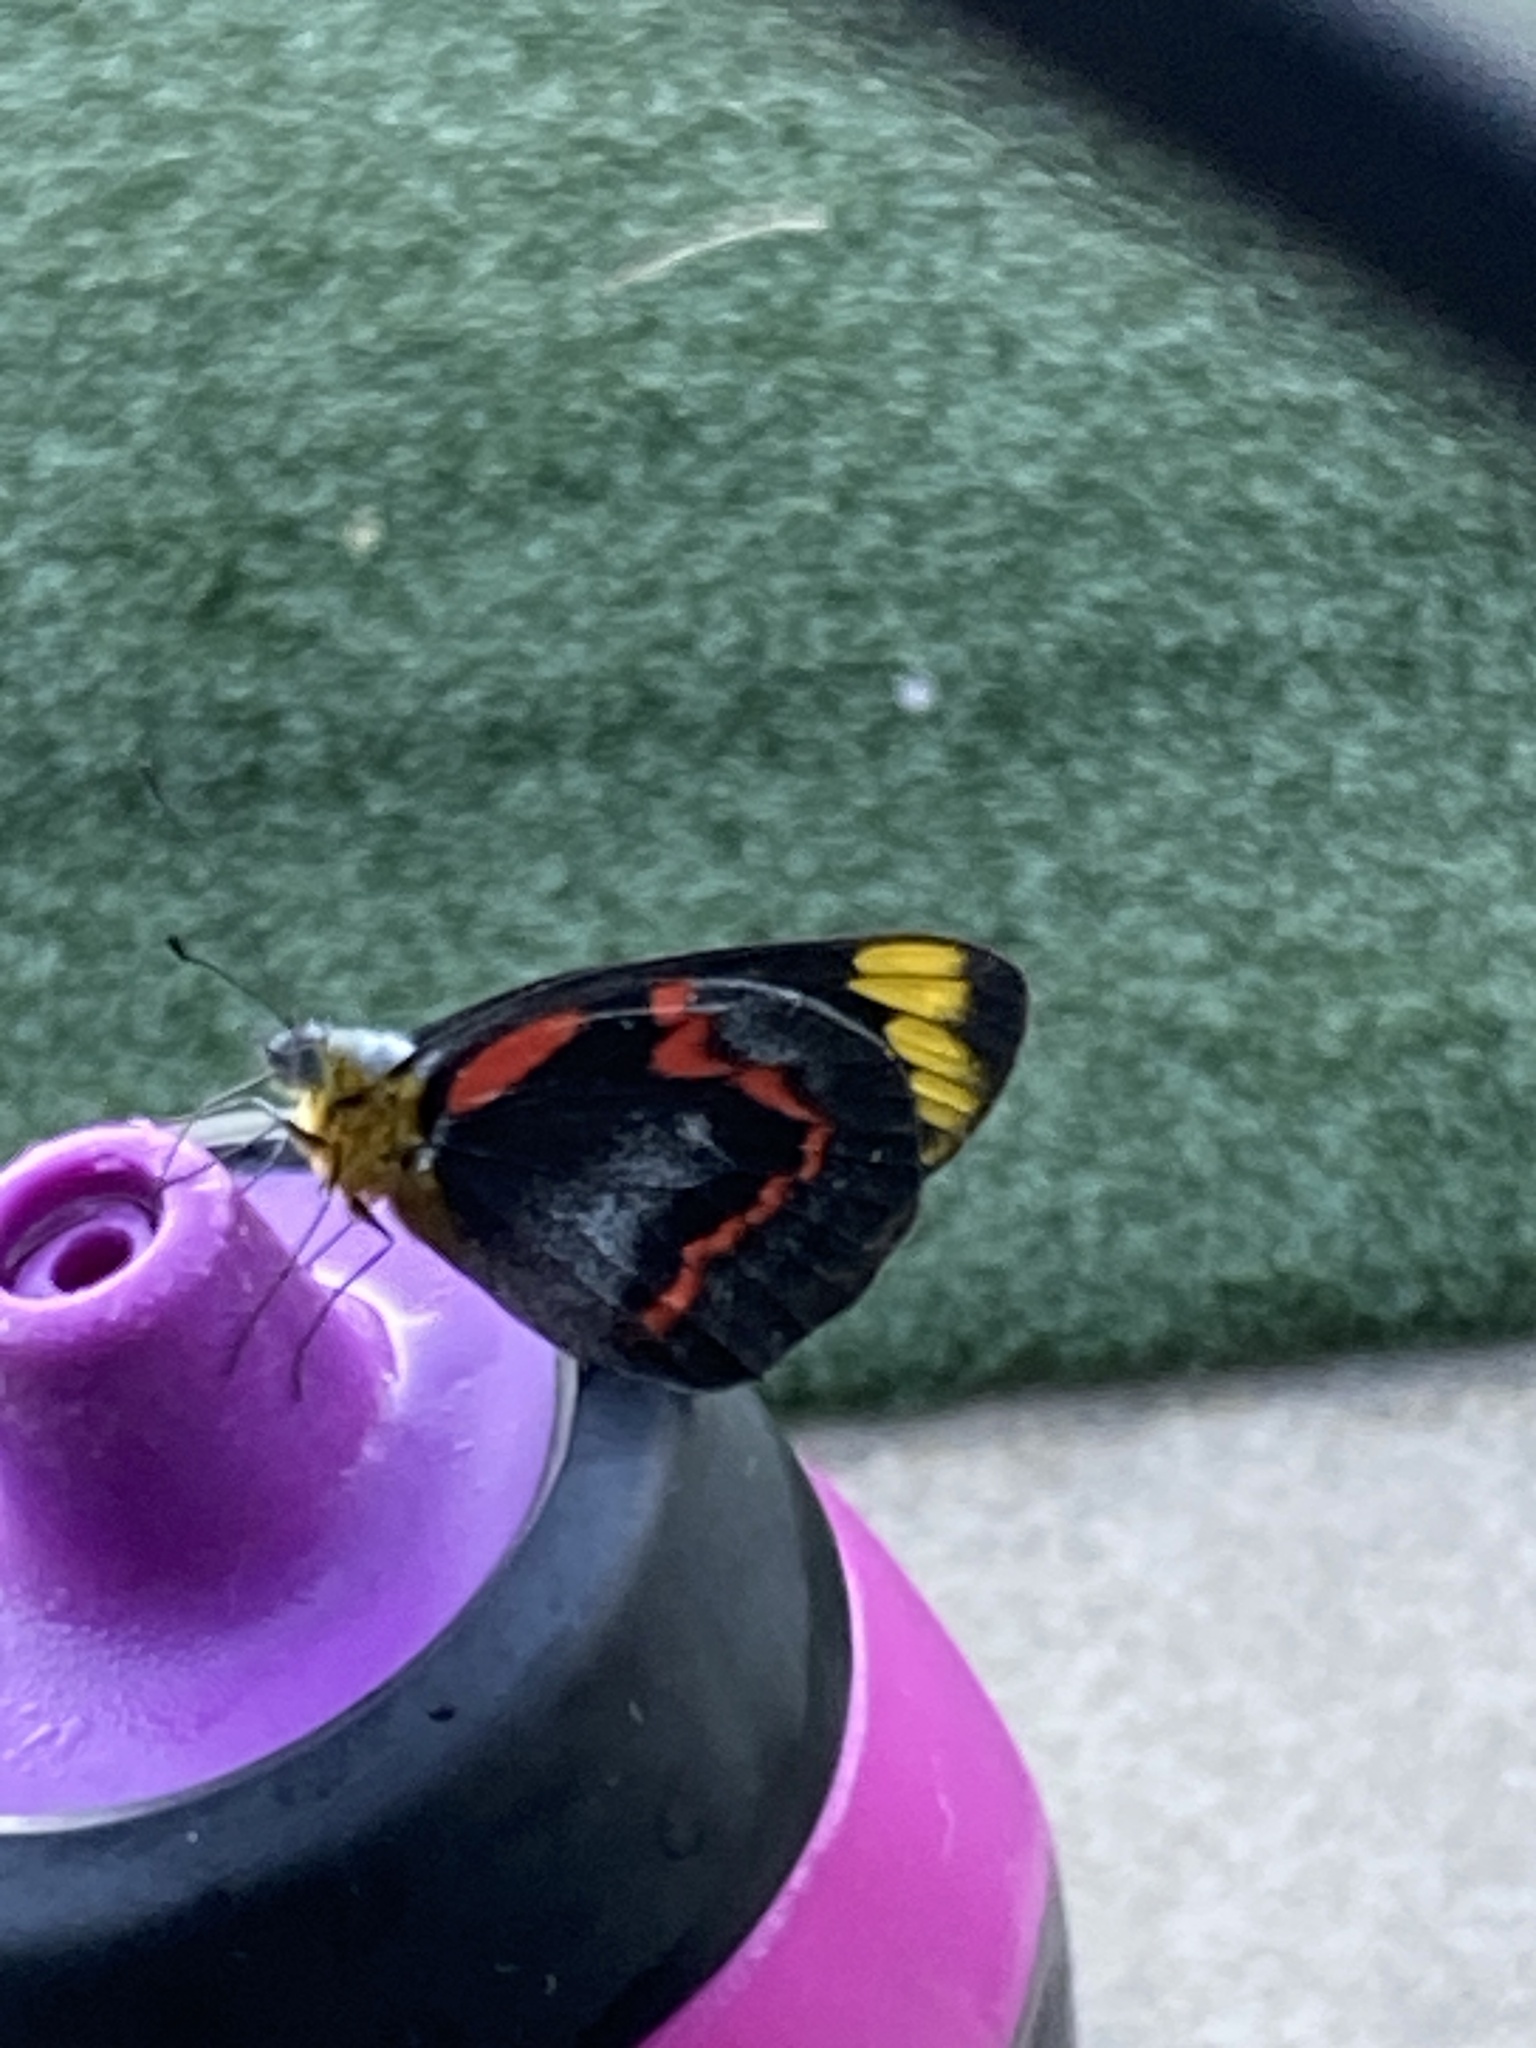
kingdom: Animalia
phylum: Arthropoda
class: Insecta
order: Lepidoptera
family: Pieridae
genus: Delias
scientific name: Delias nigrina
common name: Black jezebel
